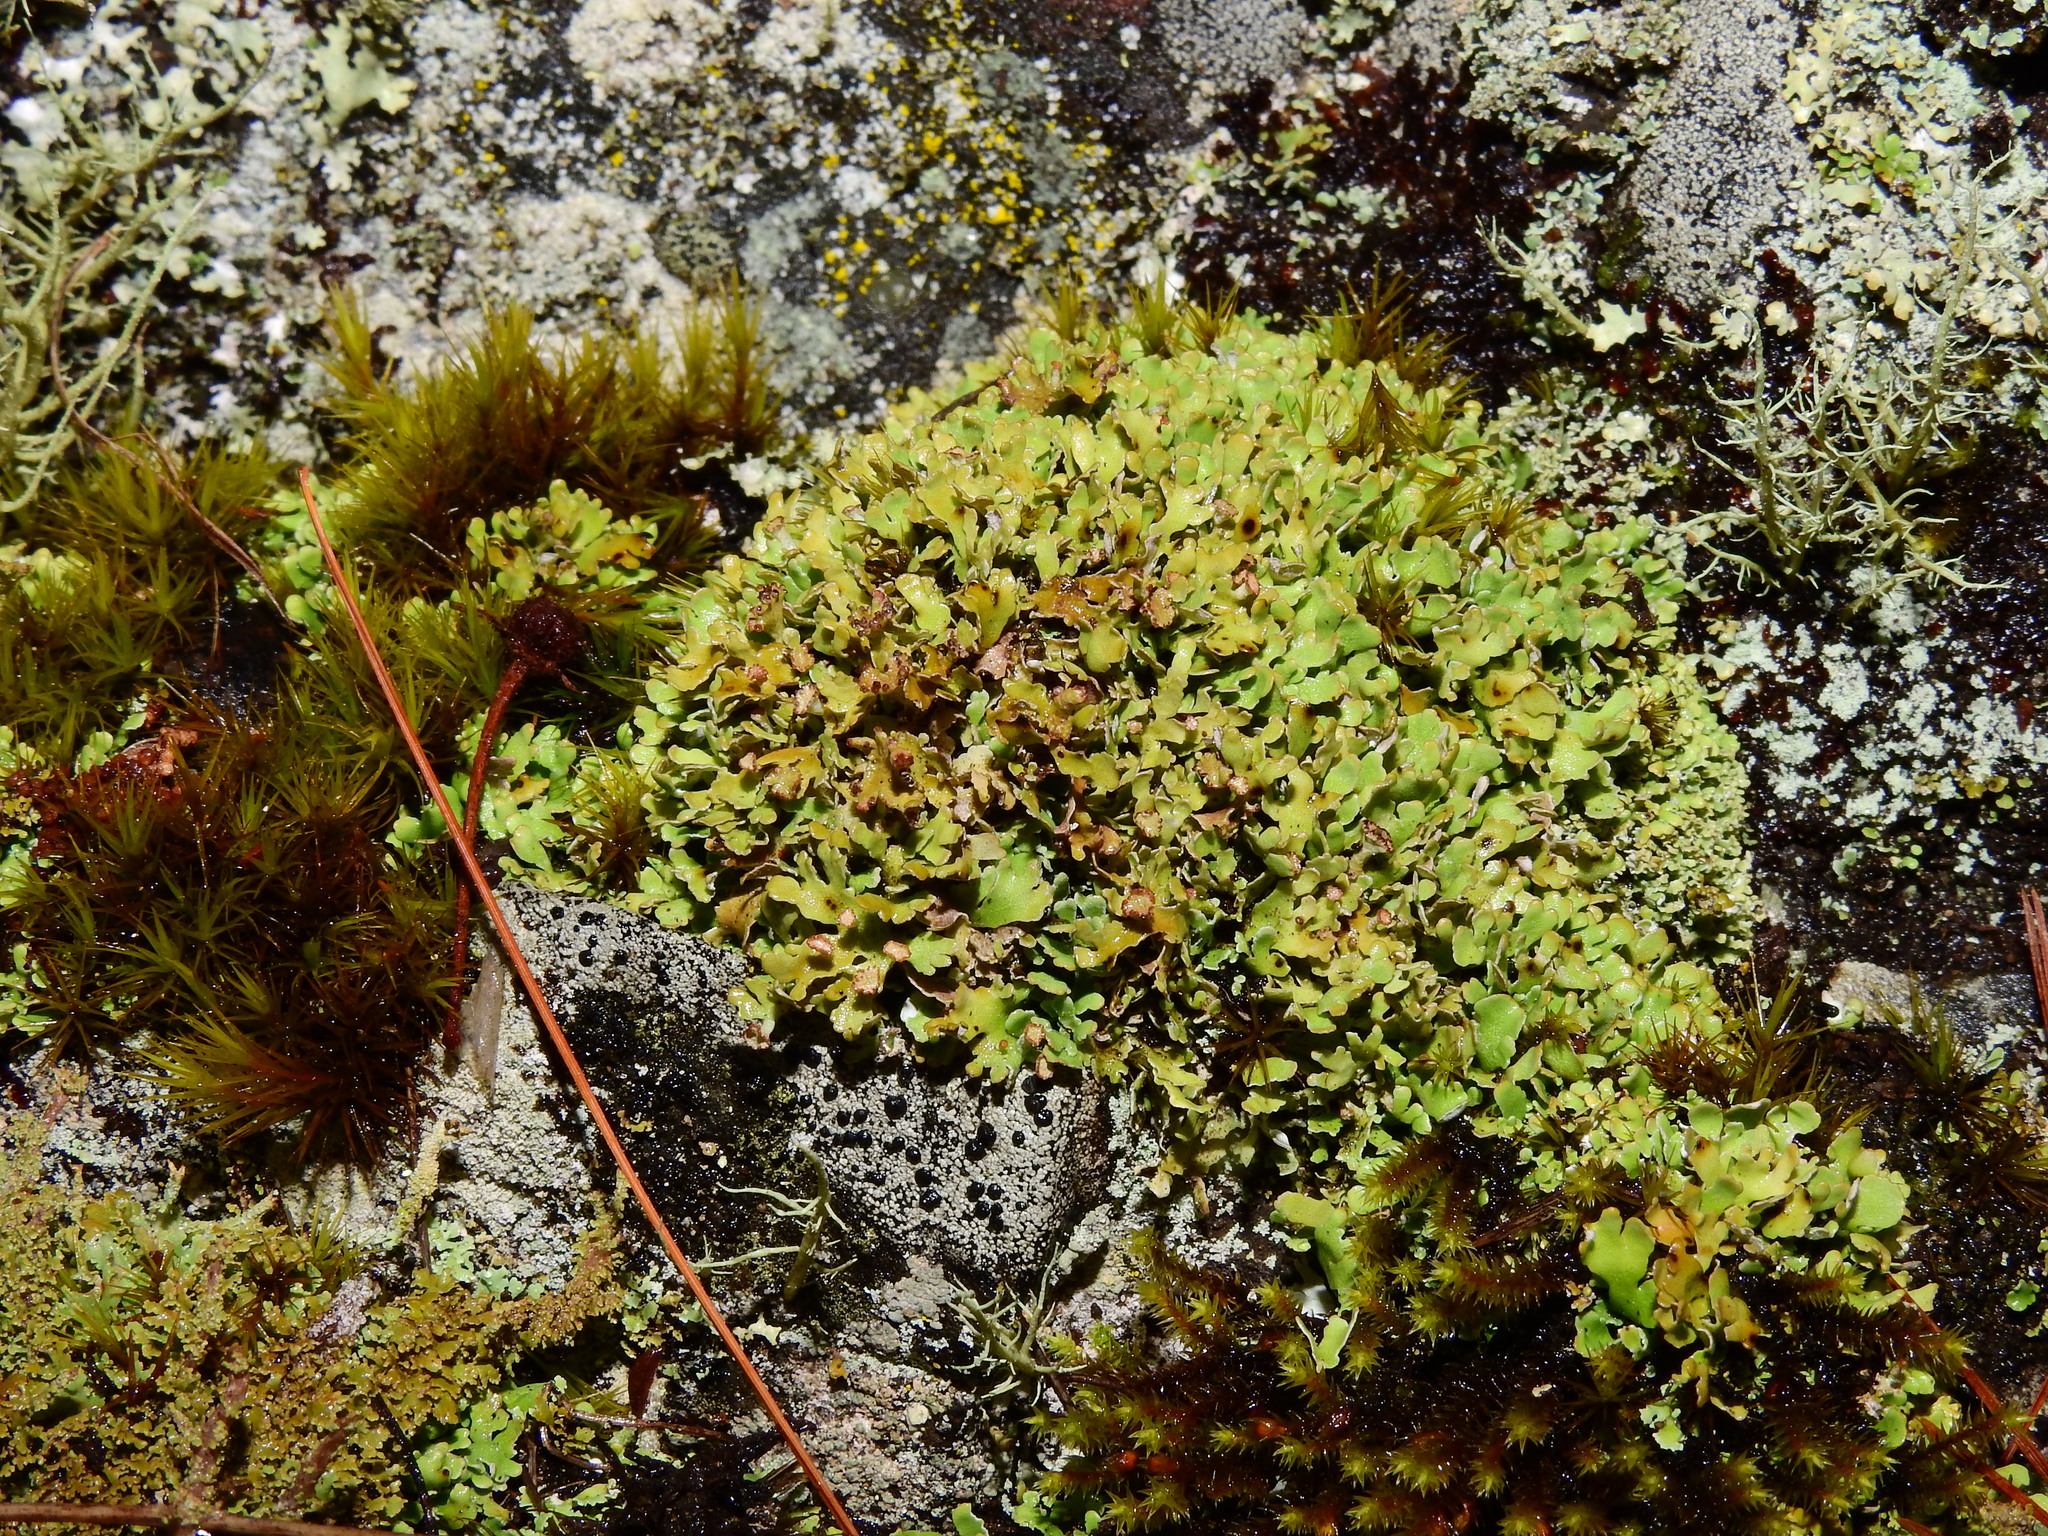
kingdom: Fungi
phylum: Ascomycota
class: Lecanoromycetes
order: Lecanorales
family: Cladoniaceae
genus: Cladonia
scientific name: Cladonia apodocarpa
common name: Stalkless cladonia
